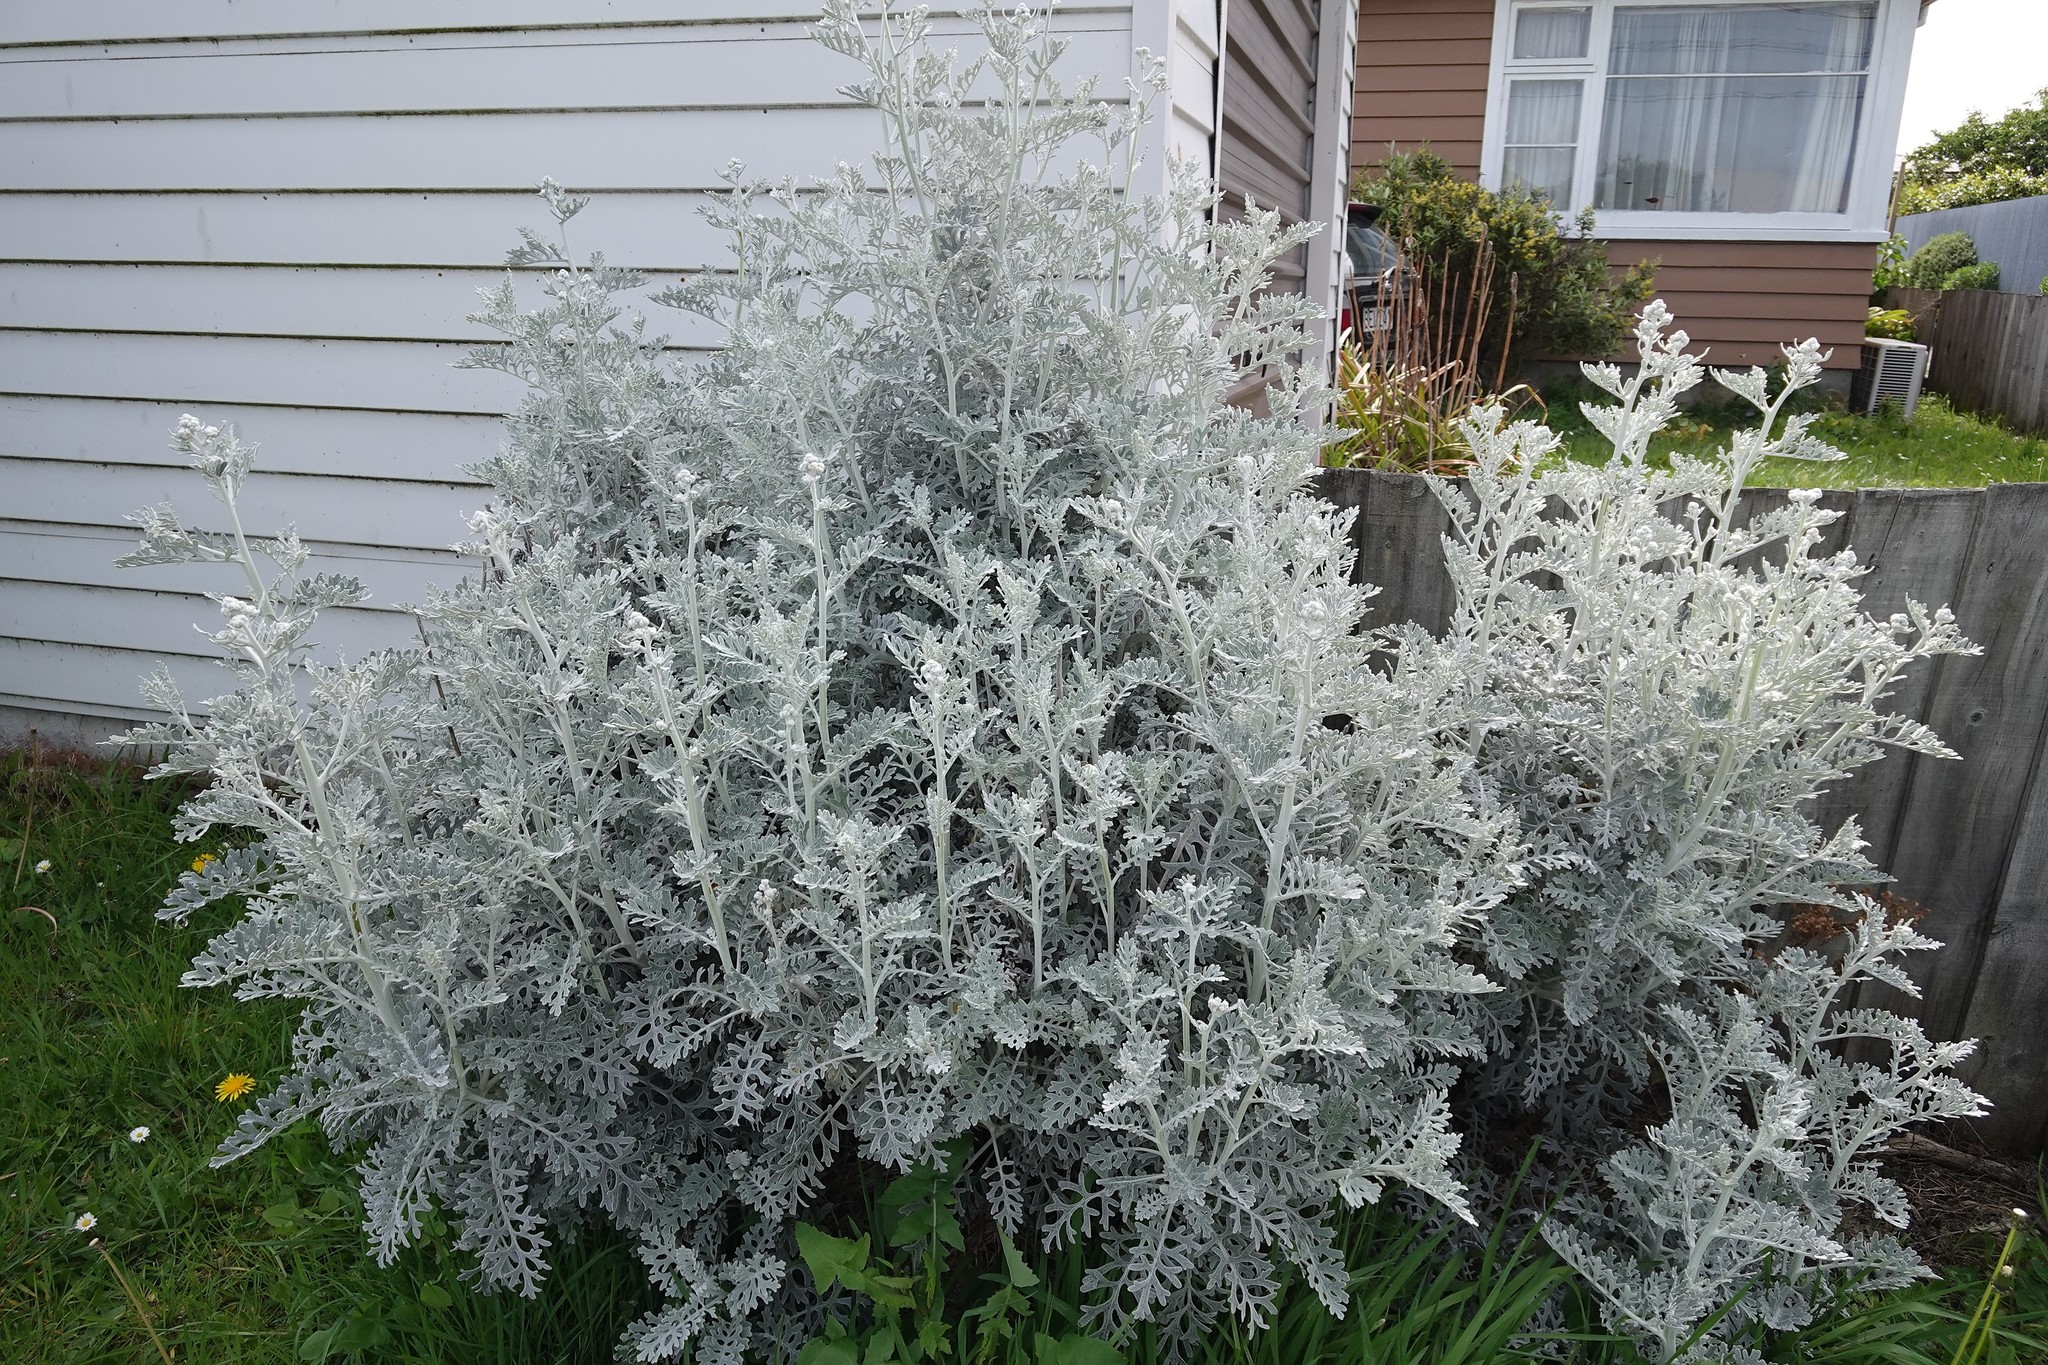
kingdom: Plantae
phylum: Tracheophyta
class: Magnoliopsida
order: Asterales
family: Asteraceae
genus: Jacobaea
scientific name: Jacobaea maritima
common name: Silver ragwort
